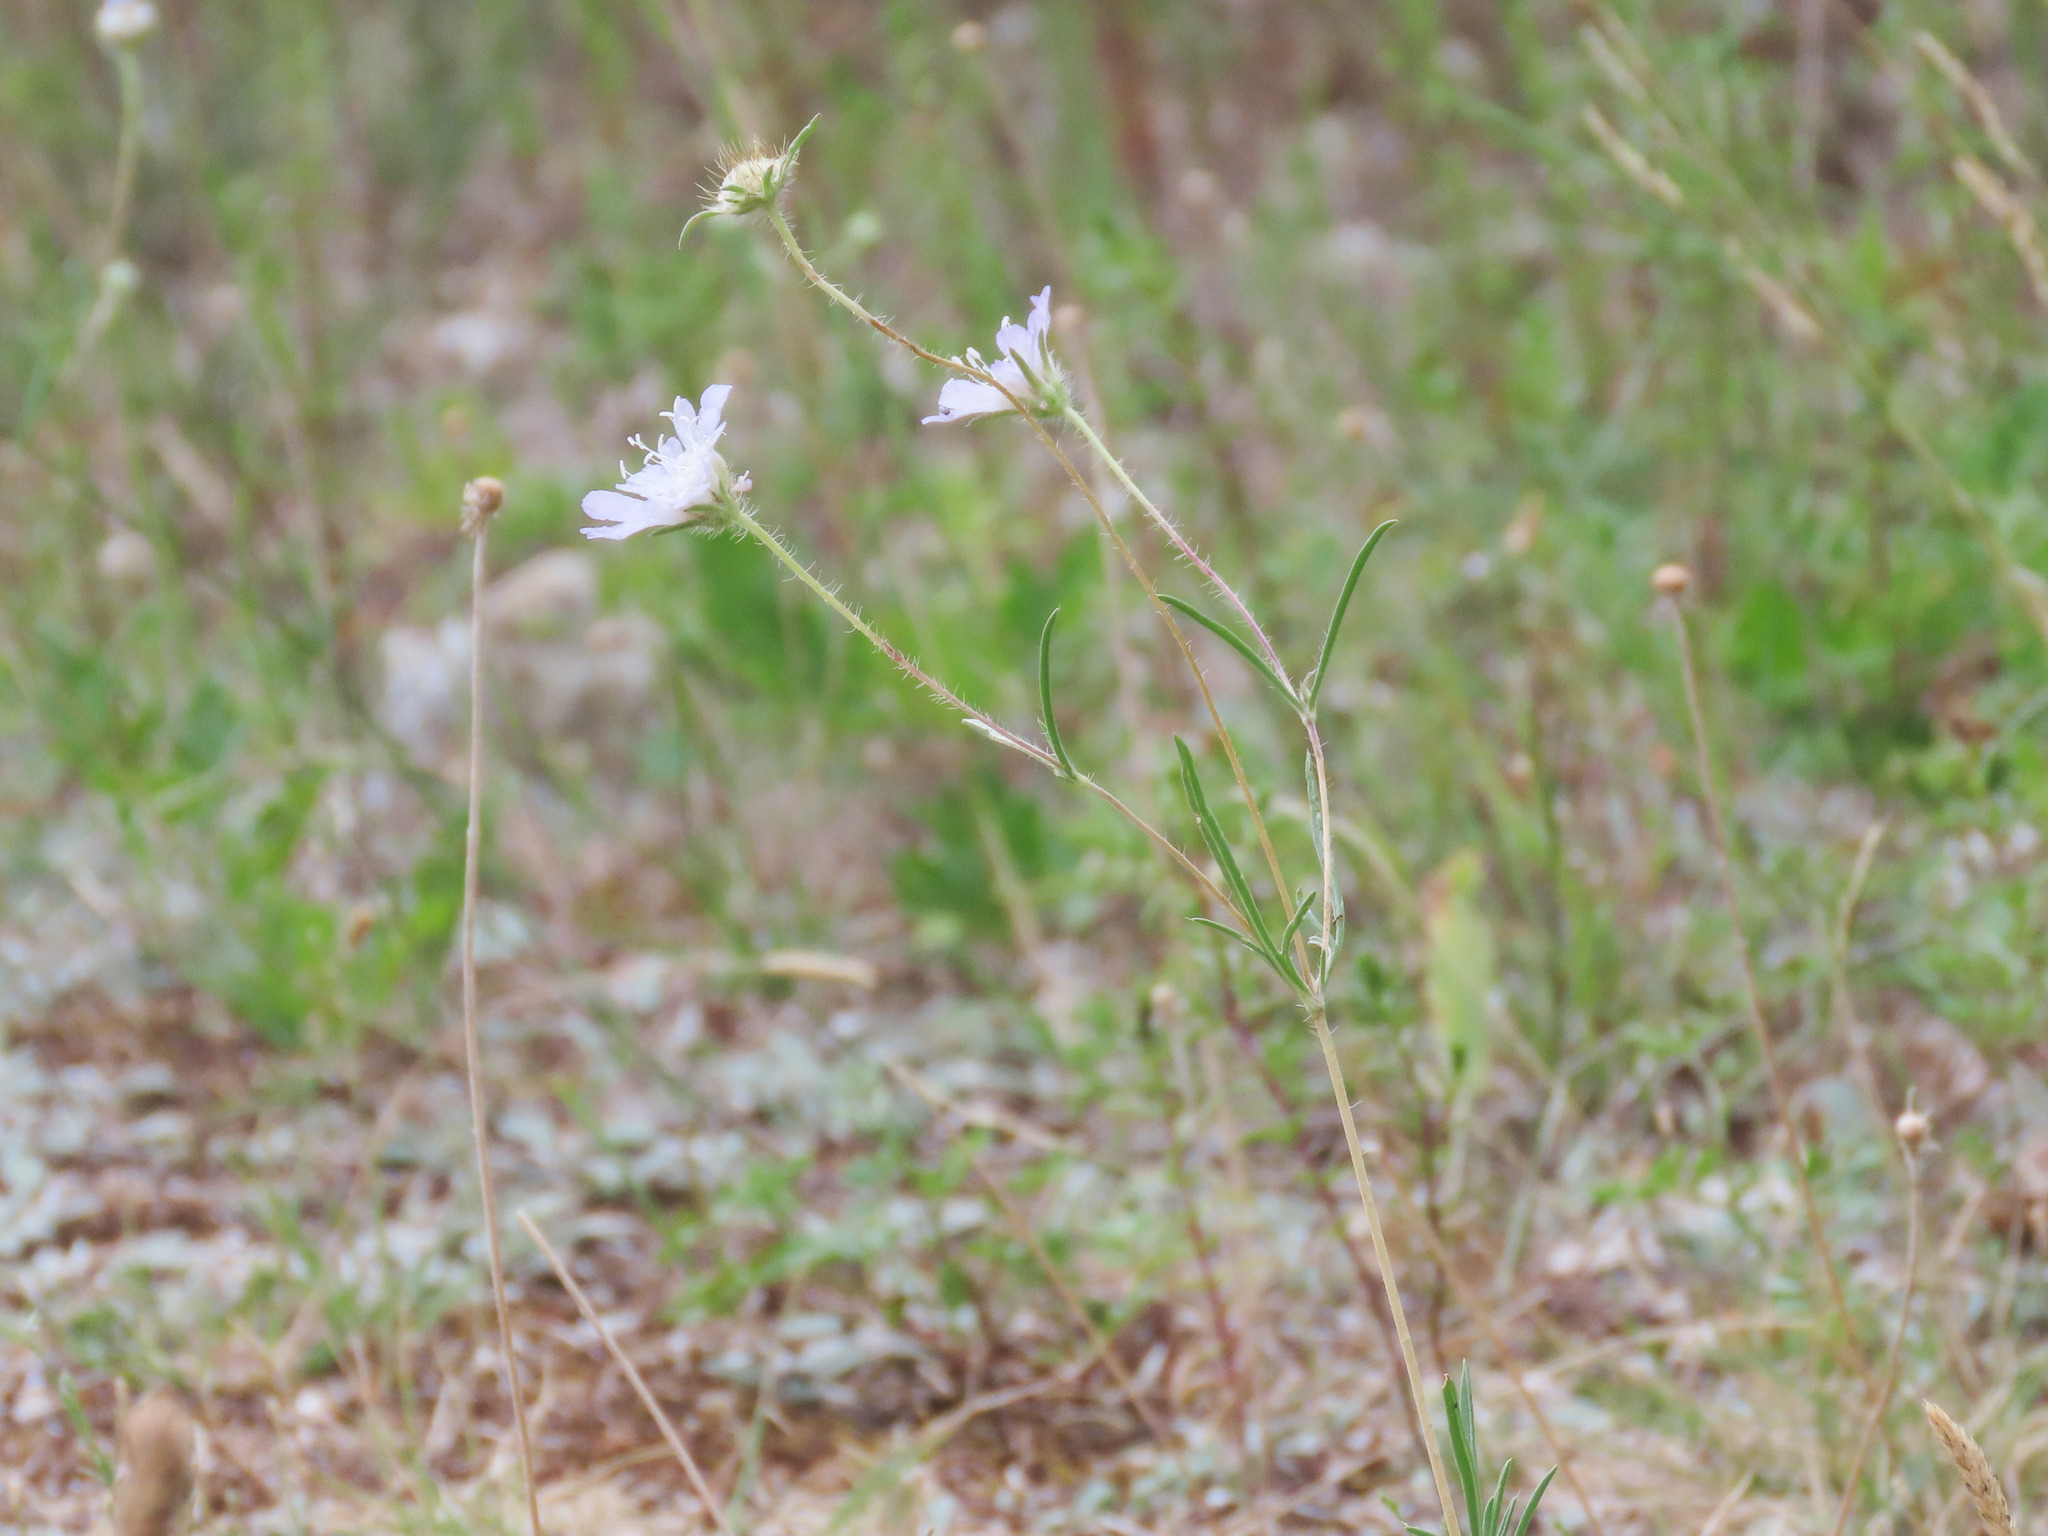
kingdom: Plantae
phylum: Tracheophyta
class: Magnoliopsida
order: Dipsacales
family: Caprifoliaceae
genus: Lomelosia
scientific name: Lomelosia argentea
